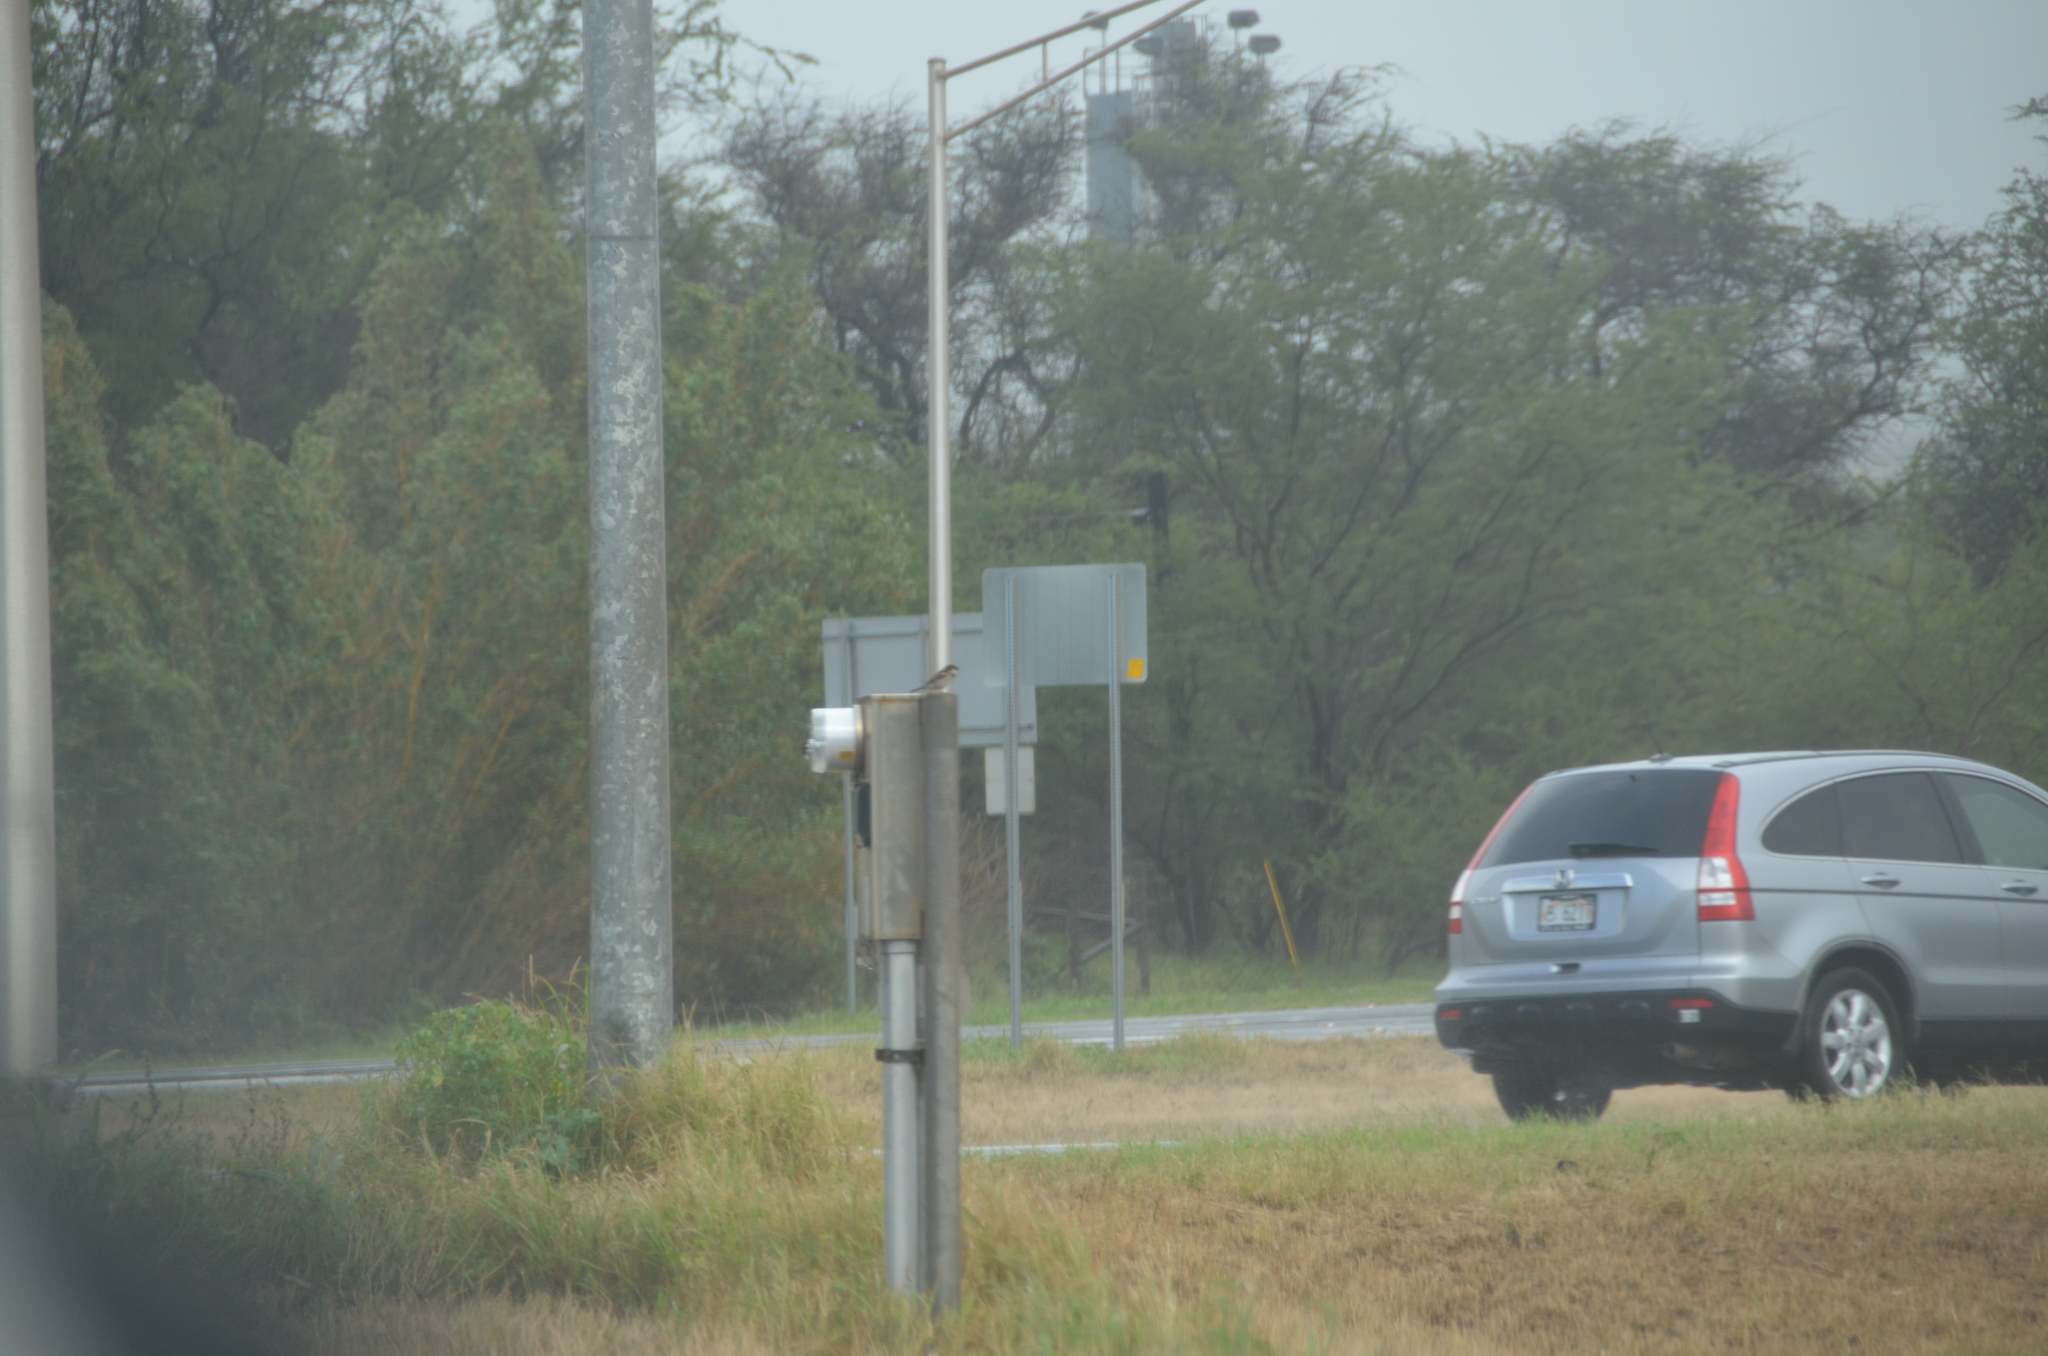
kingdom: Animalia
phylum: Chordata
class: Aves
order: Passeriformes
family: Passeridae
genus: Passer
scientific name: Passer domesticus
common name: House sparrow
